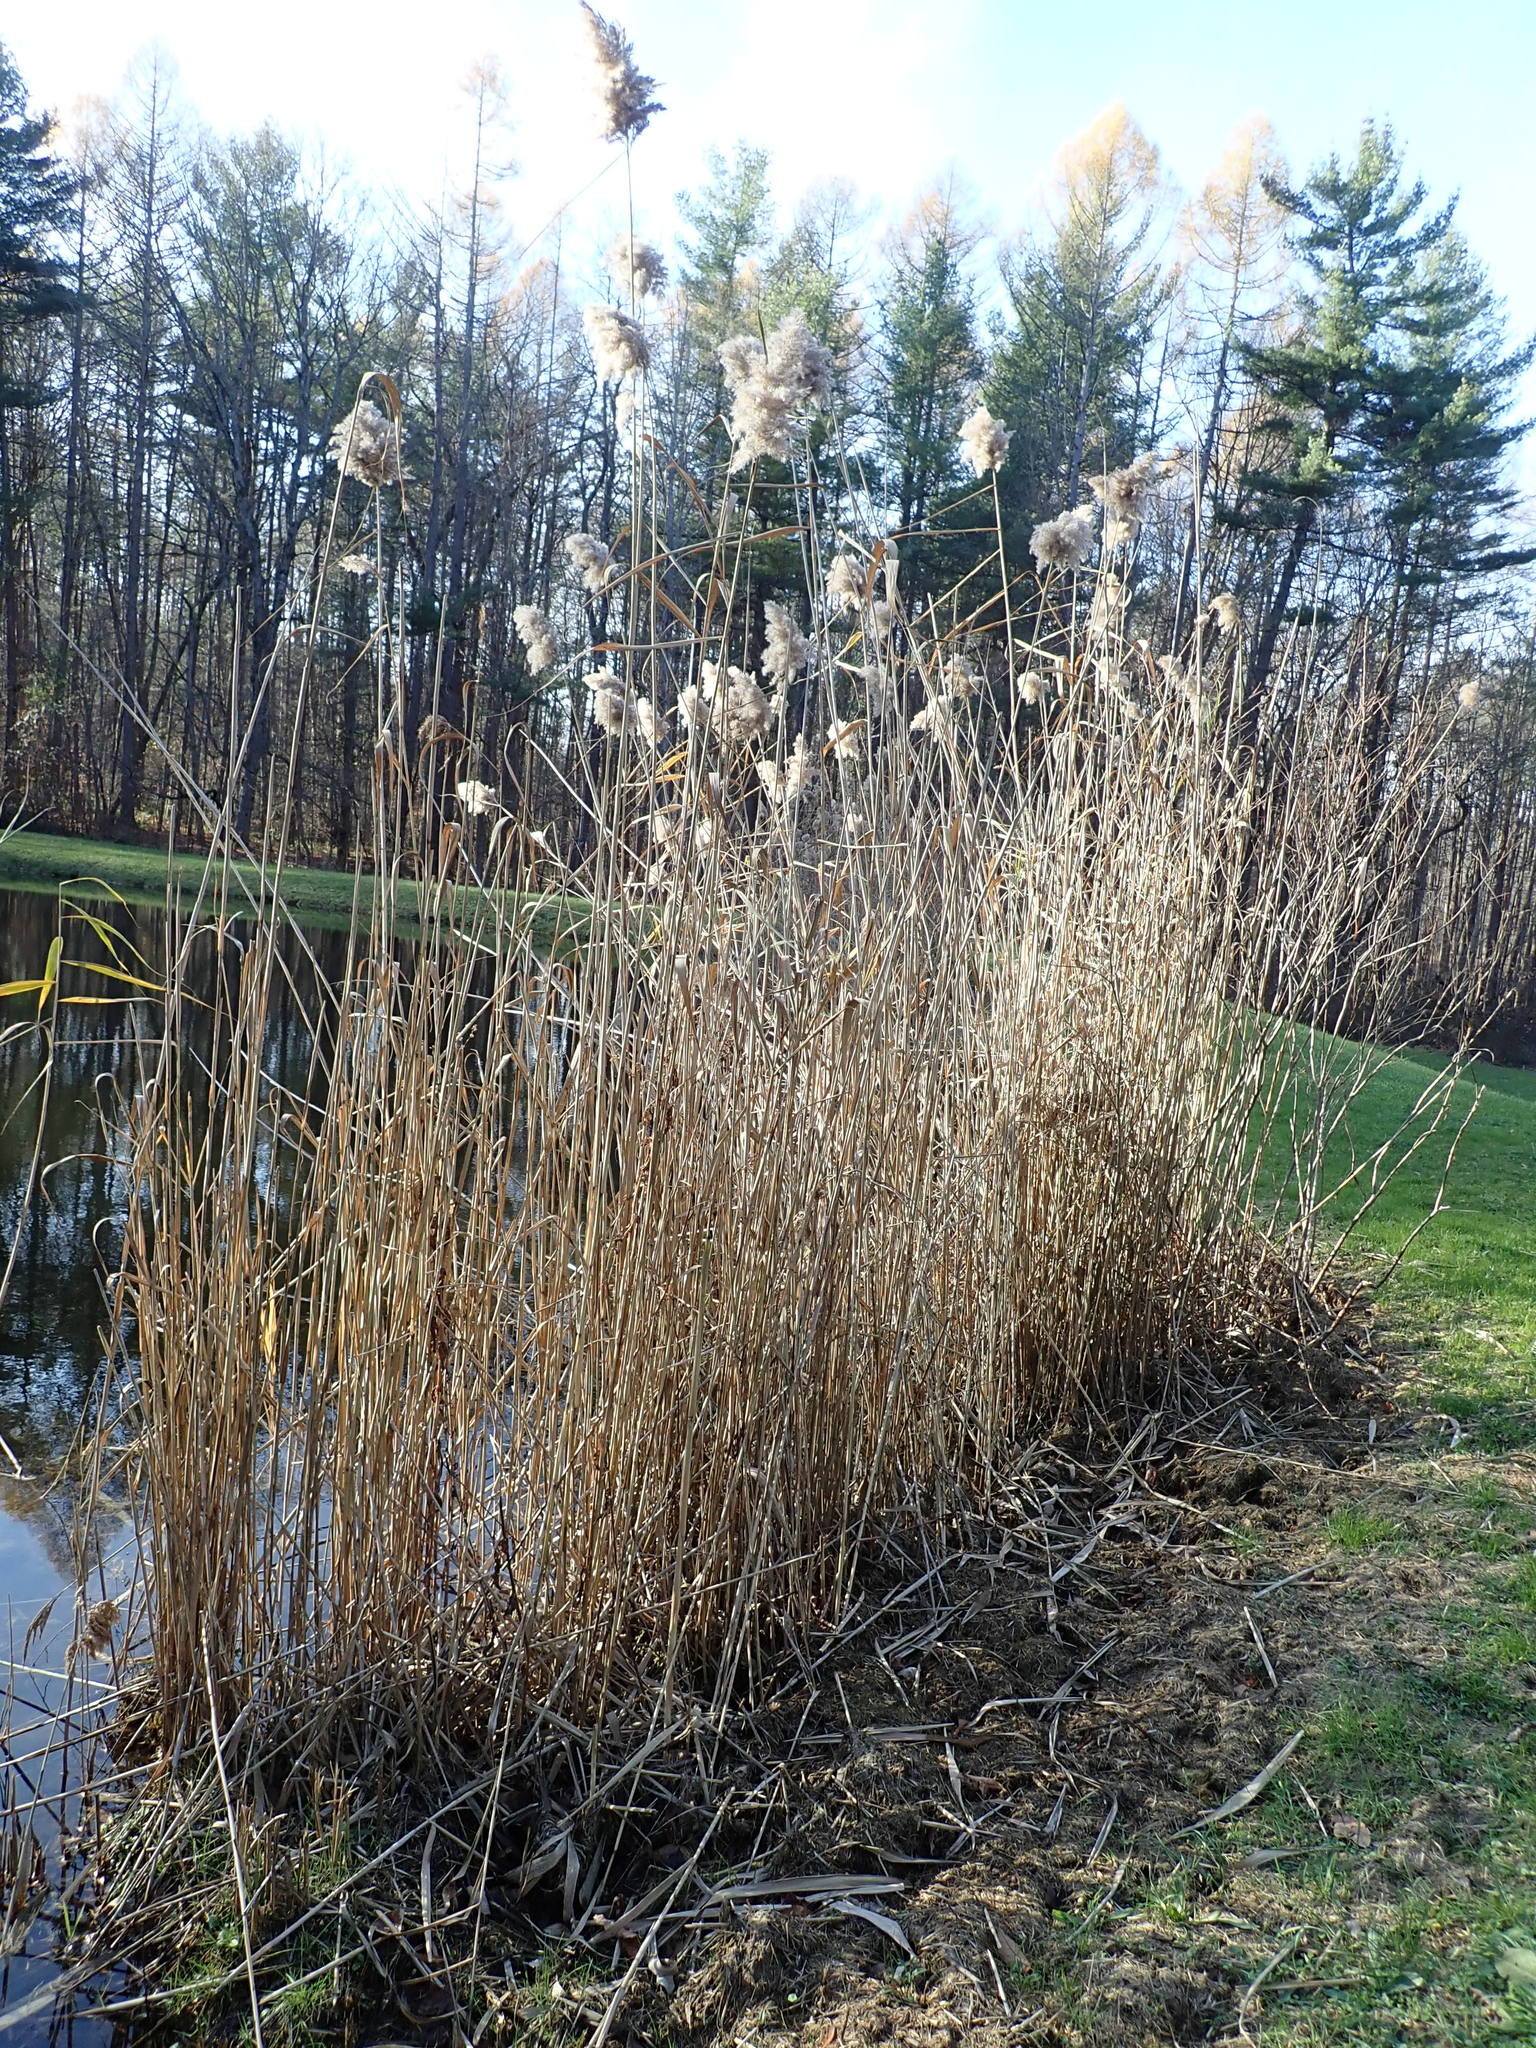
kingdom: Plantae
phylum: Tracheophyta
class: Liliopsida
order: Poales
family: Poaceae
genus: Phragmites
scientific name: Phragmites australis
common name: Common reed
